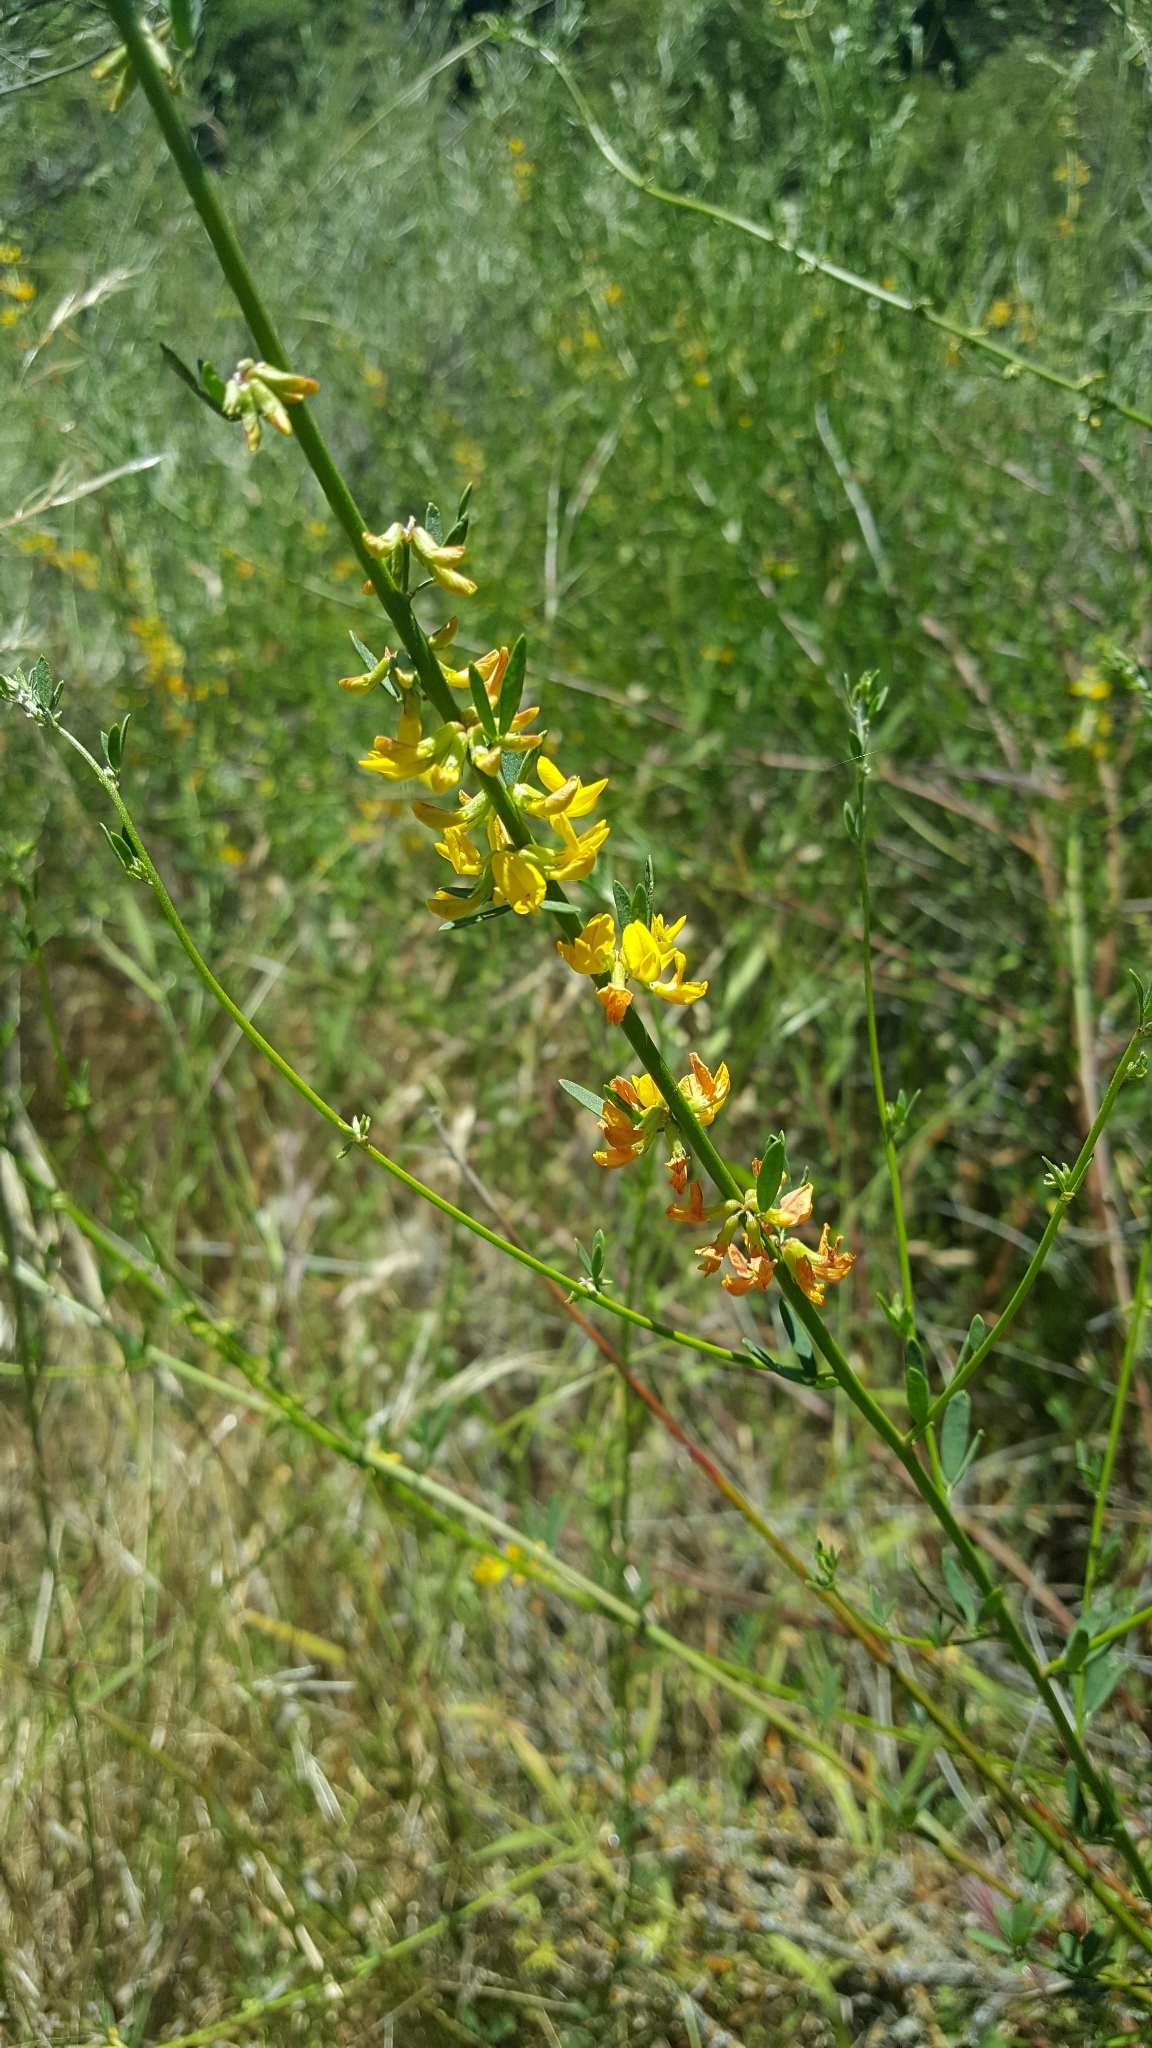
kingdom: Plantae
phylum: Tracheophyta
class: Magnoliopsida
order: Fabales
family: Fabaceae
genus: Acmispon
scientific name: Acmispon glaber
